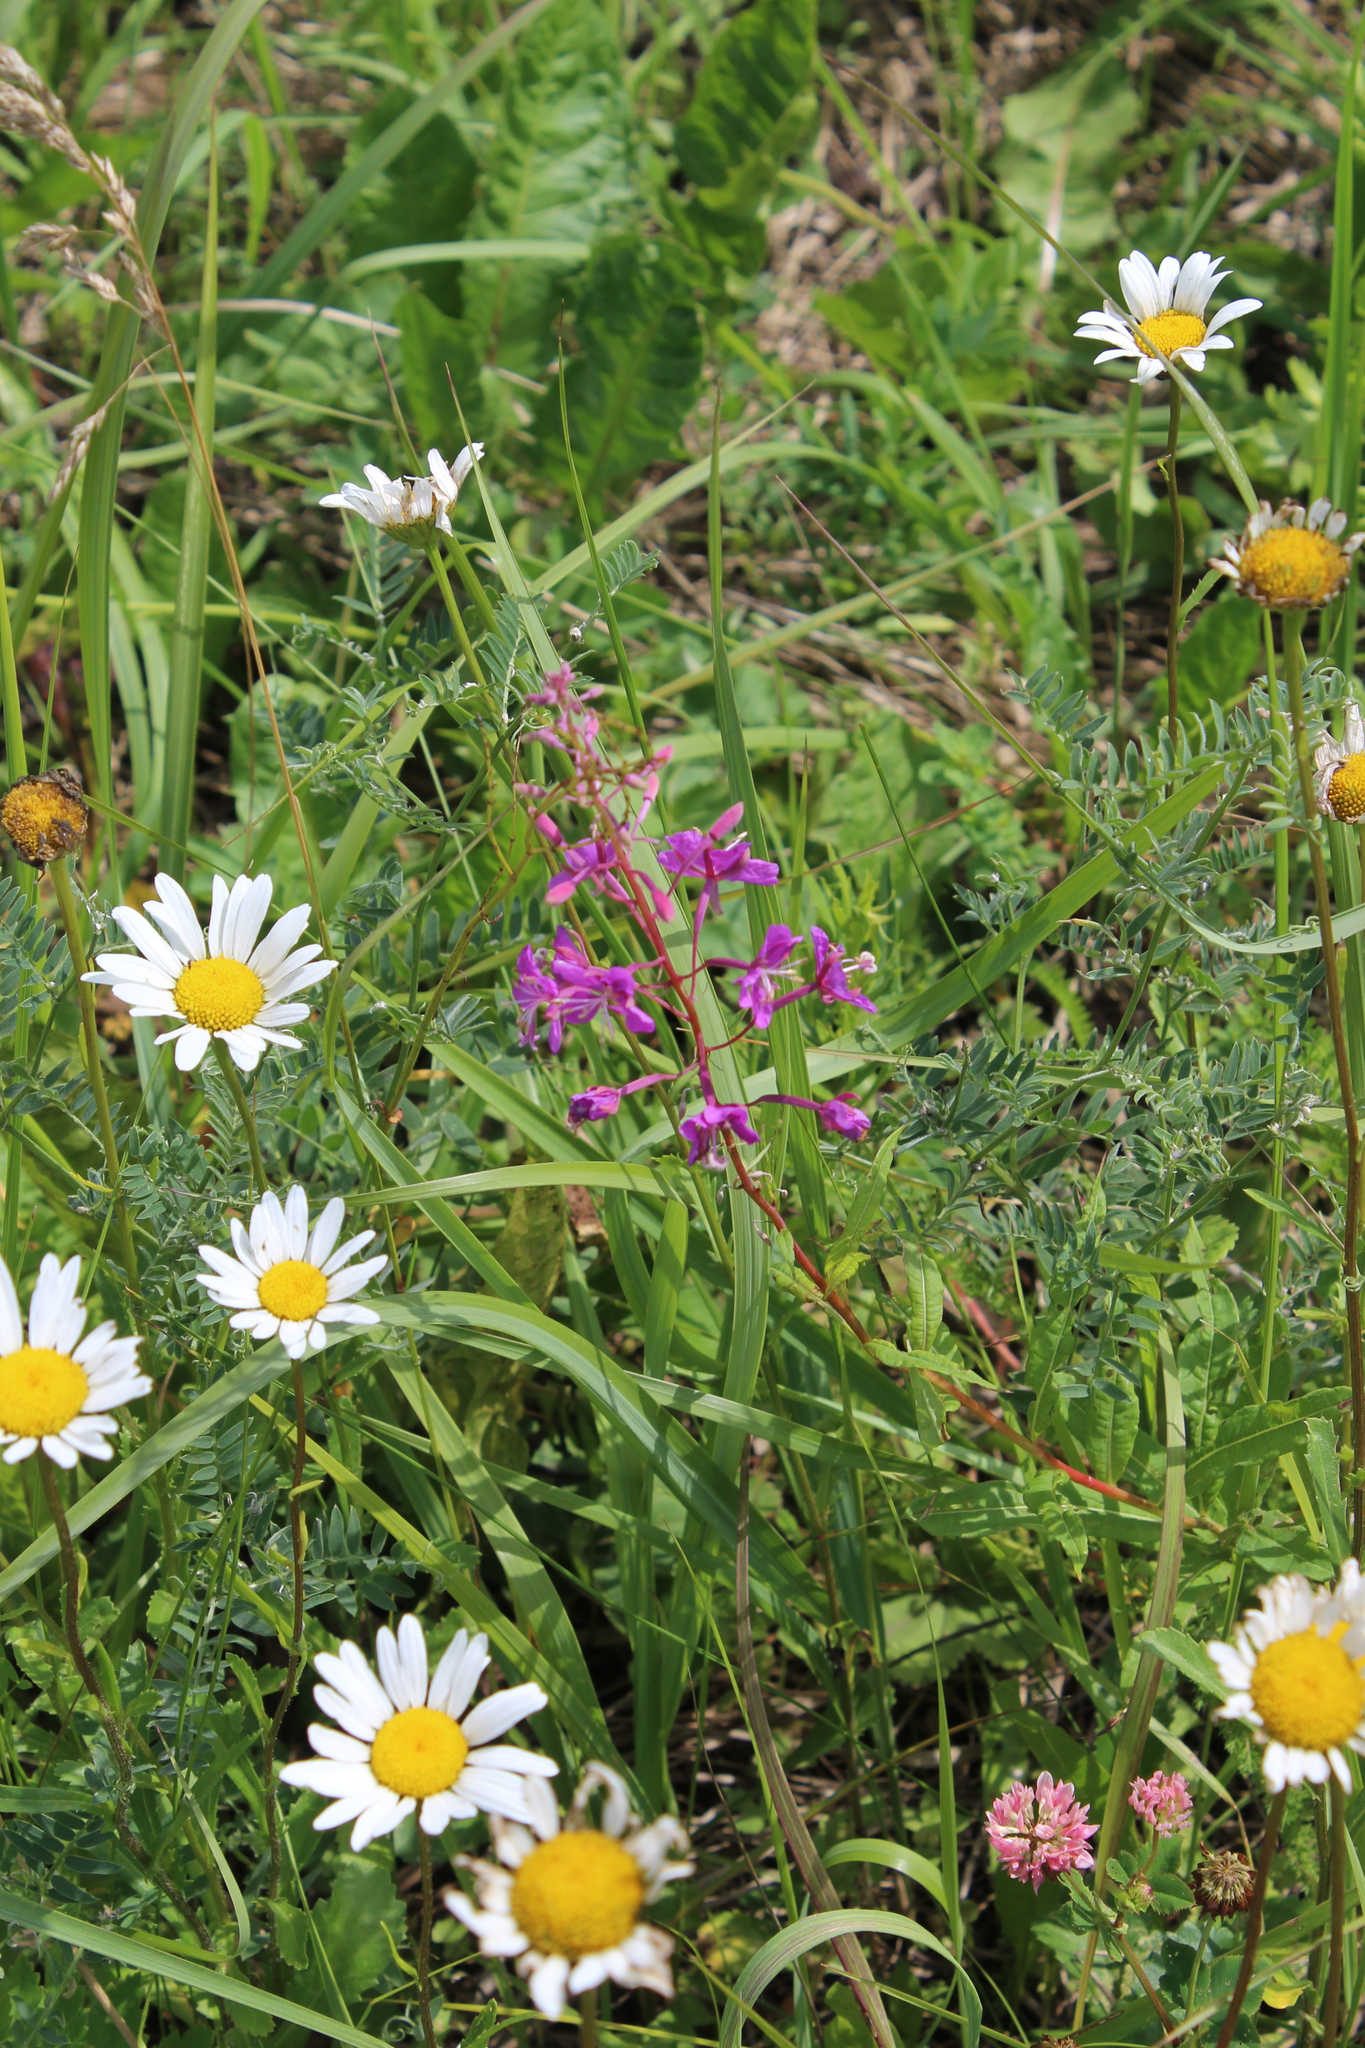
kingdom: Plantae
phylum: Tracheophyta
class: Magnoliopsida
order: Myrtales
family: Onagraceae
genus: Chamaenerion
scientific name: Chamaenerion angustifolium
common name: Fireweed
